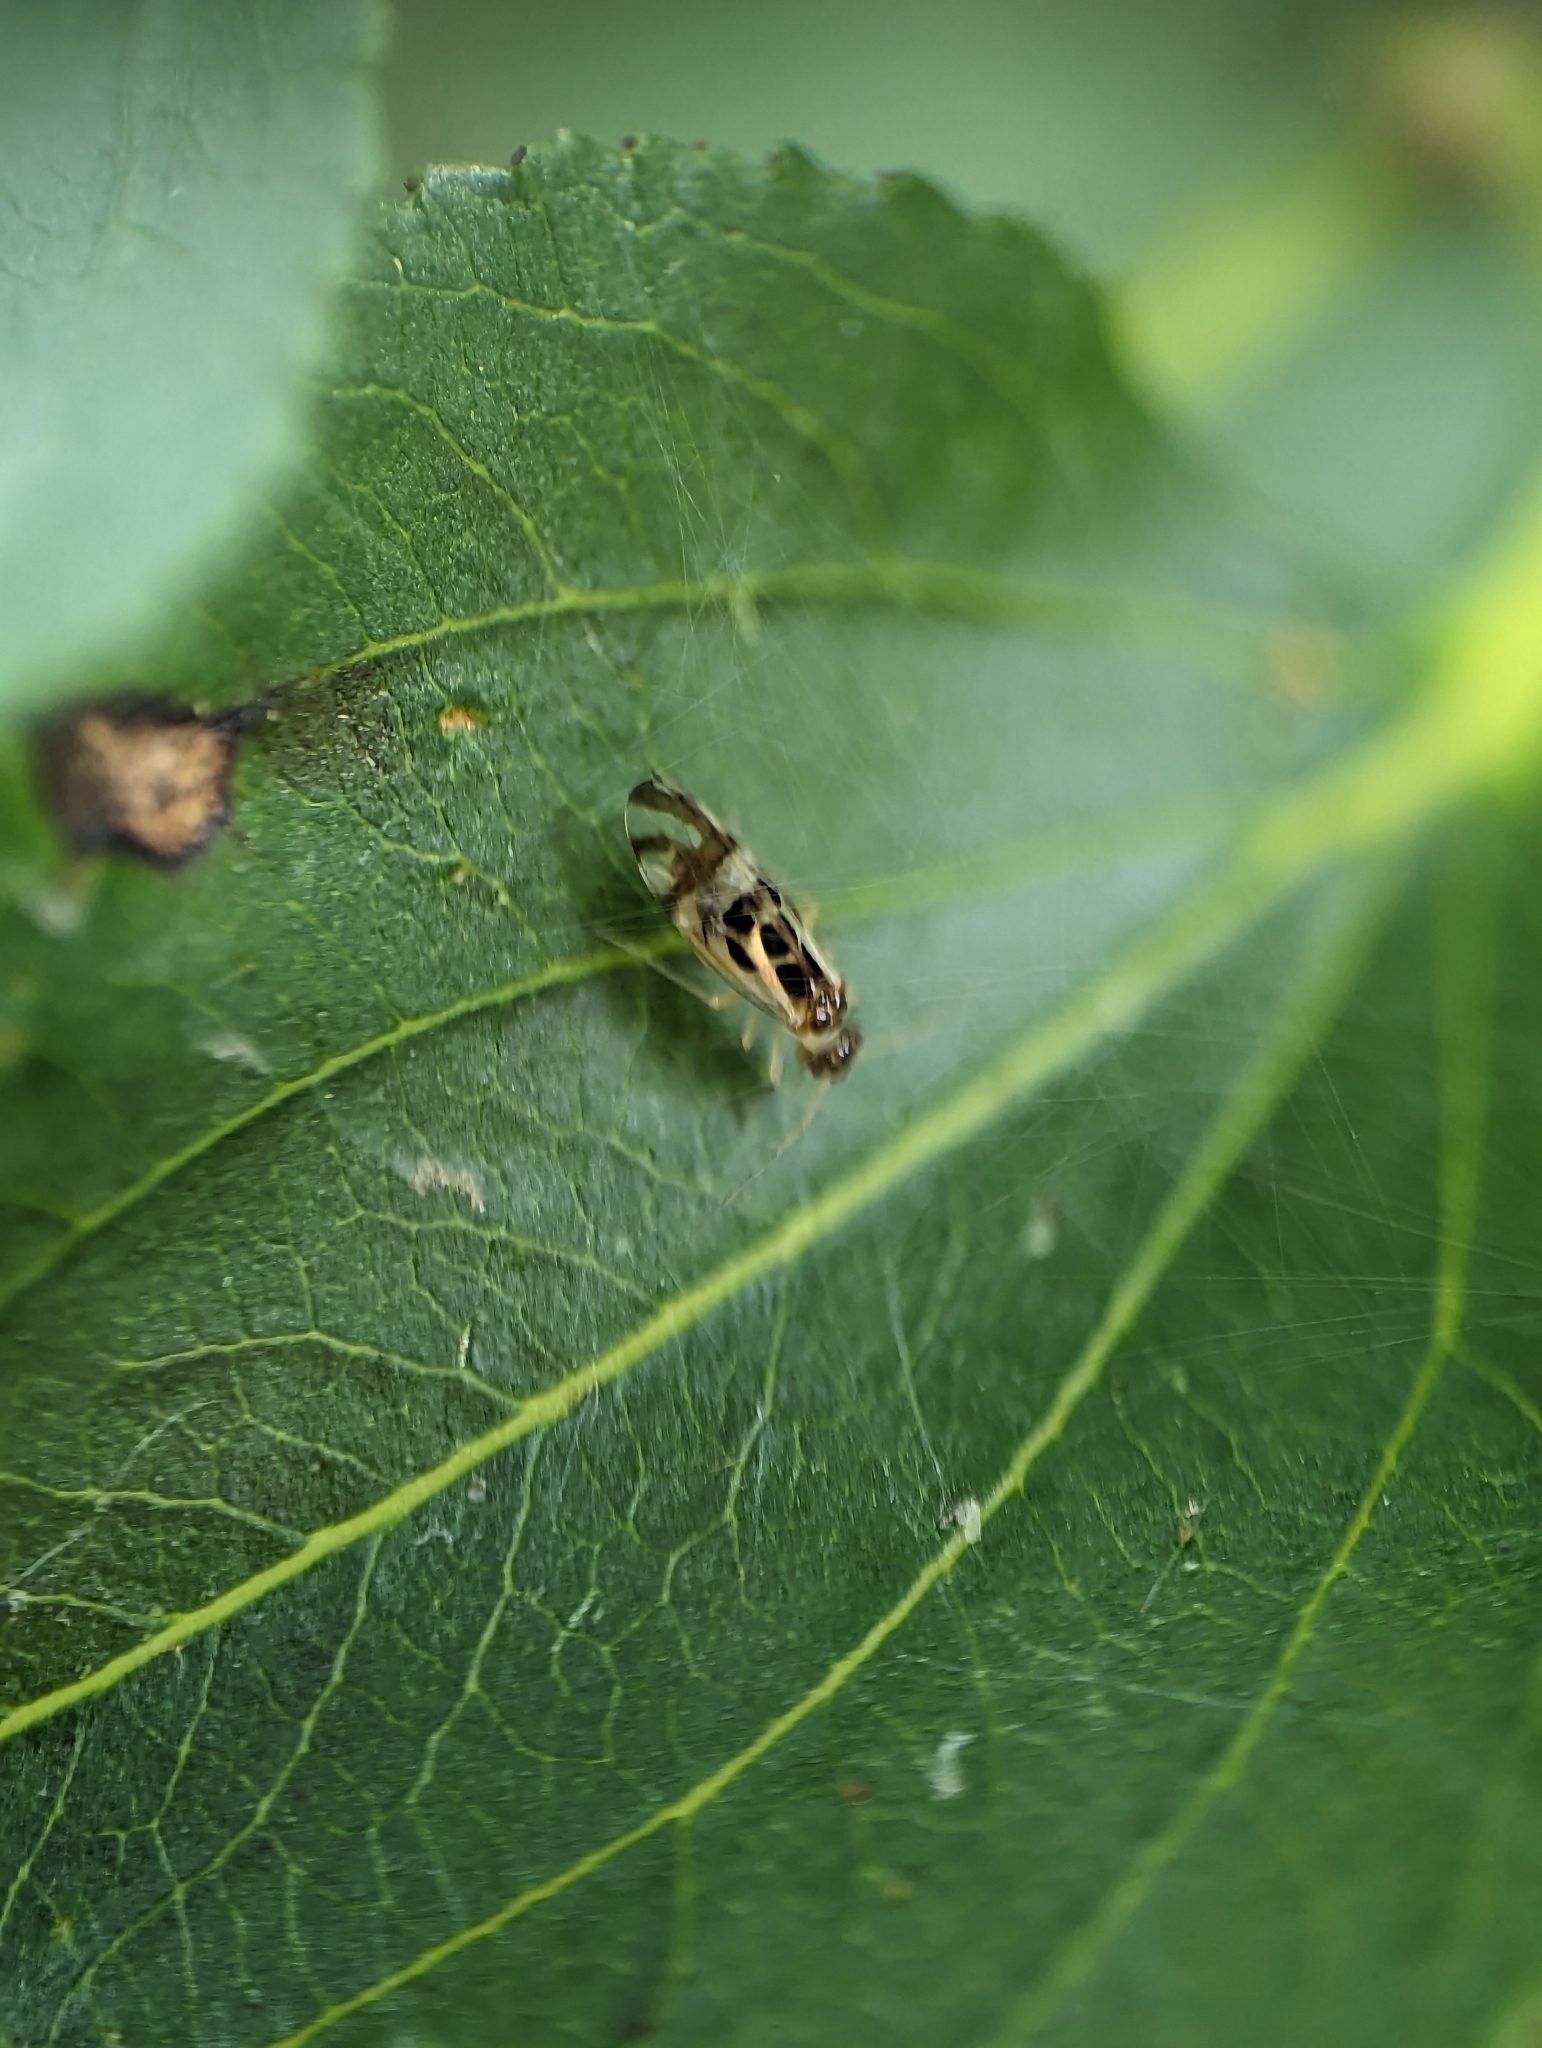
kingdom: Animalia
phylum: Arthropoda
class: Insecta
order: Psocodea
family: Stenopsocidae
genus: Graphopsocus
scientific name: Graphopsocus cruciatus
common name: Lizard bark louse
